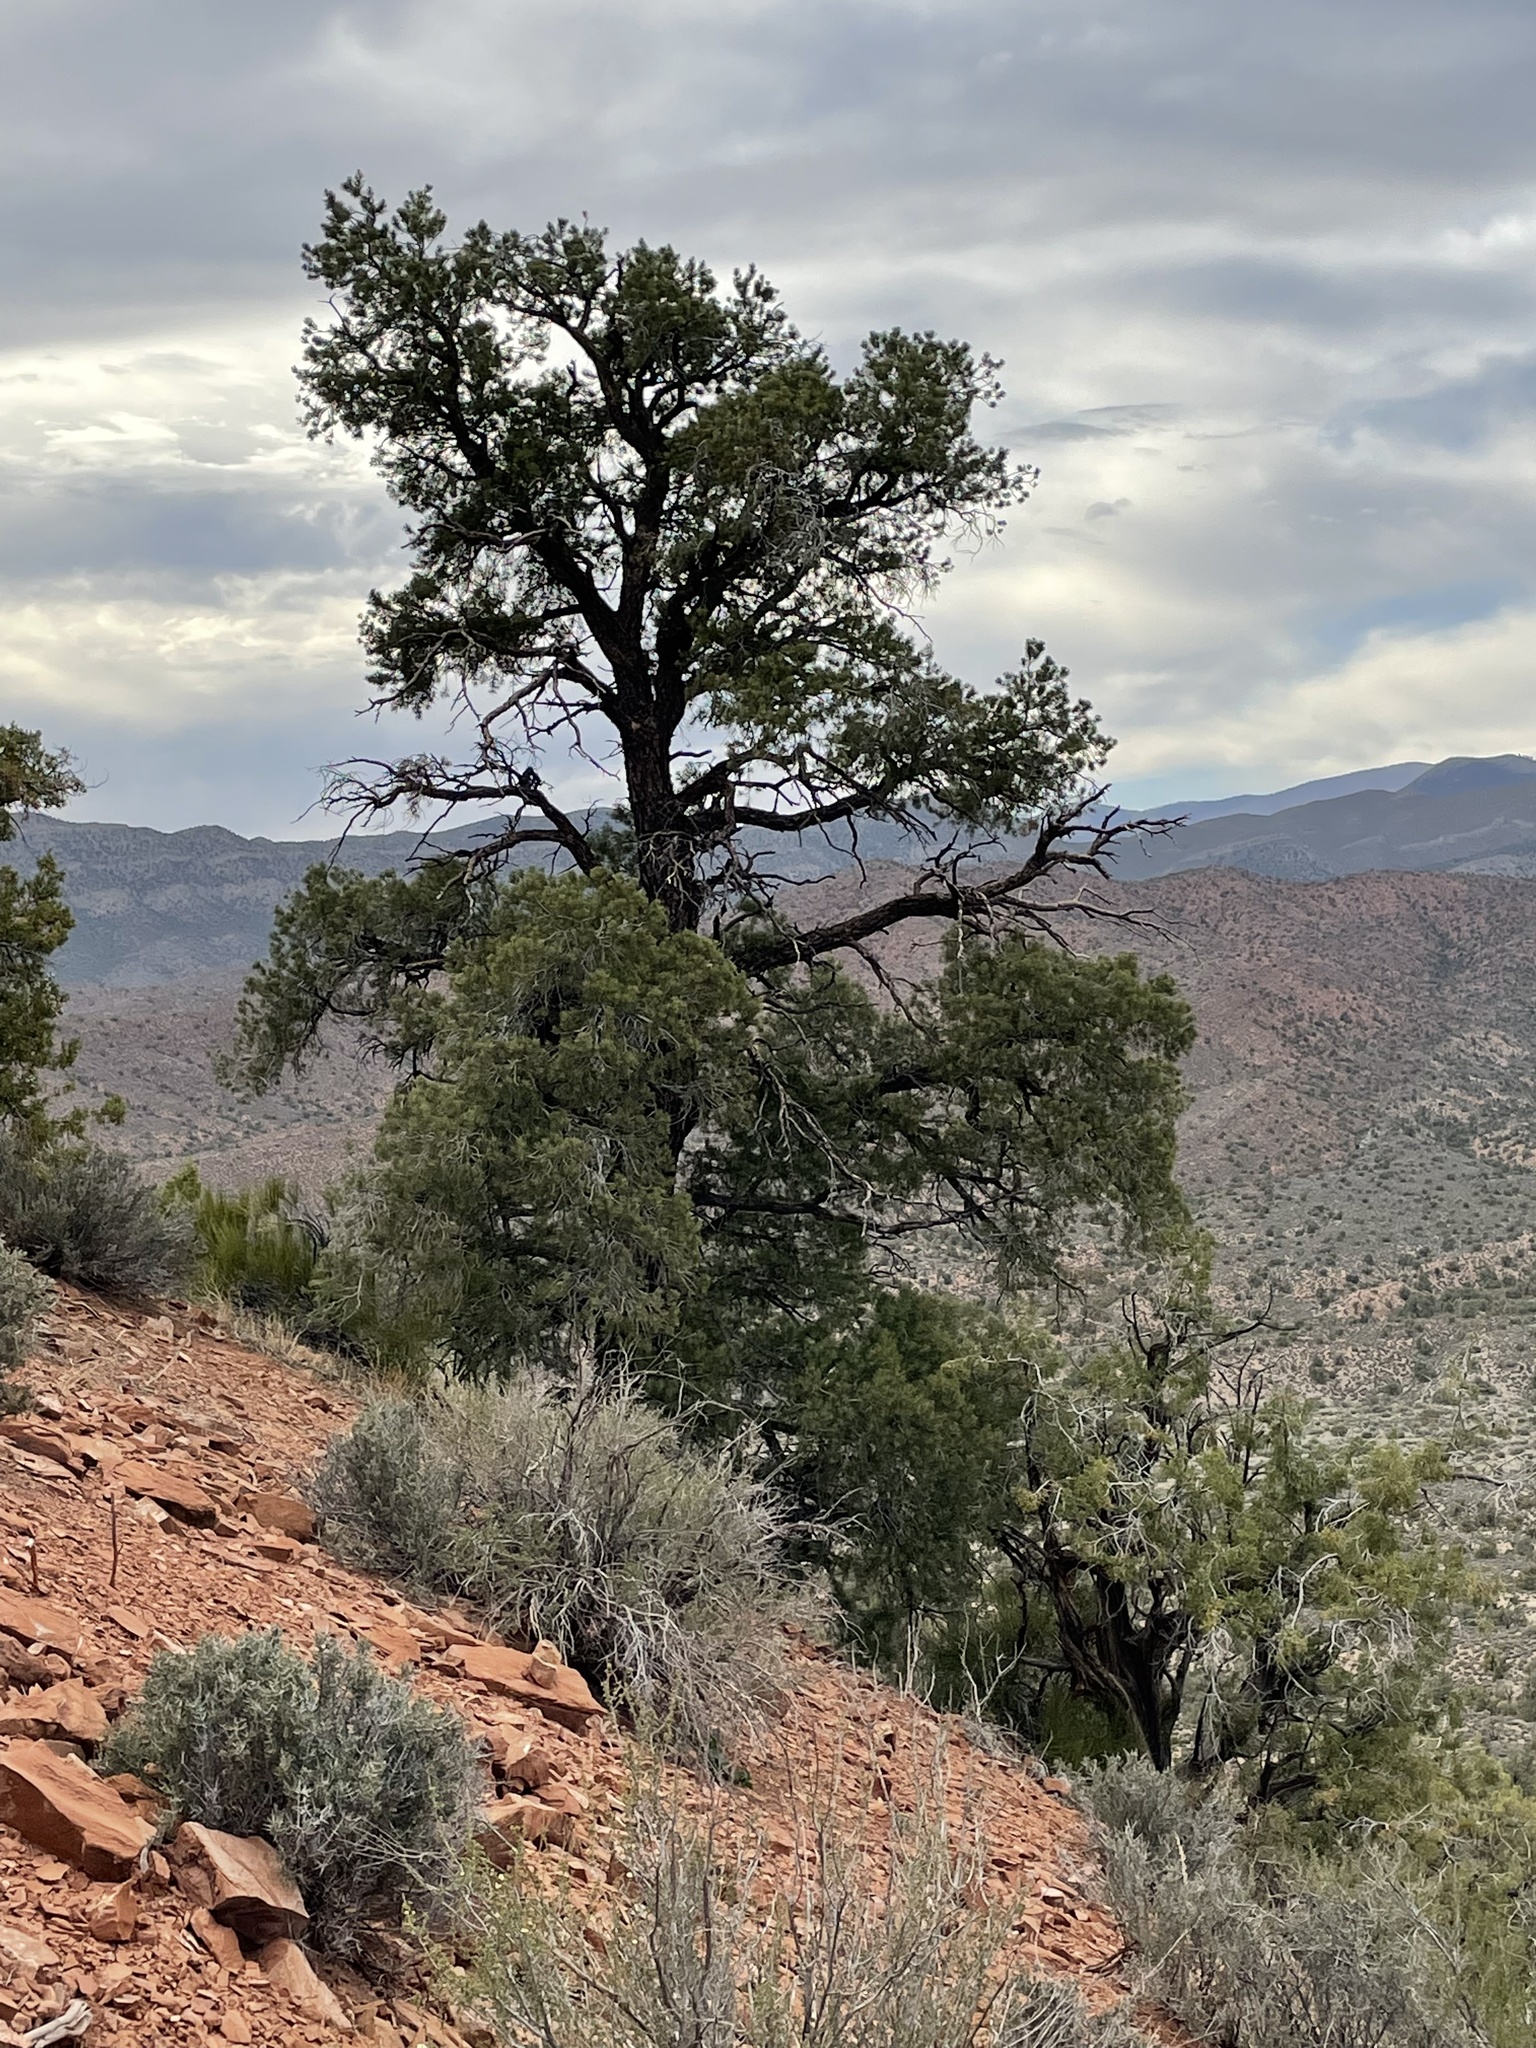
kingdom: Plantae
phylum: Tracheophyta
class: Pinopsida
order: Pinales
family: Pinaceae
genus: Pinus
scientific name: Pinus monophylla
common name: One-leaved nut pine
